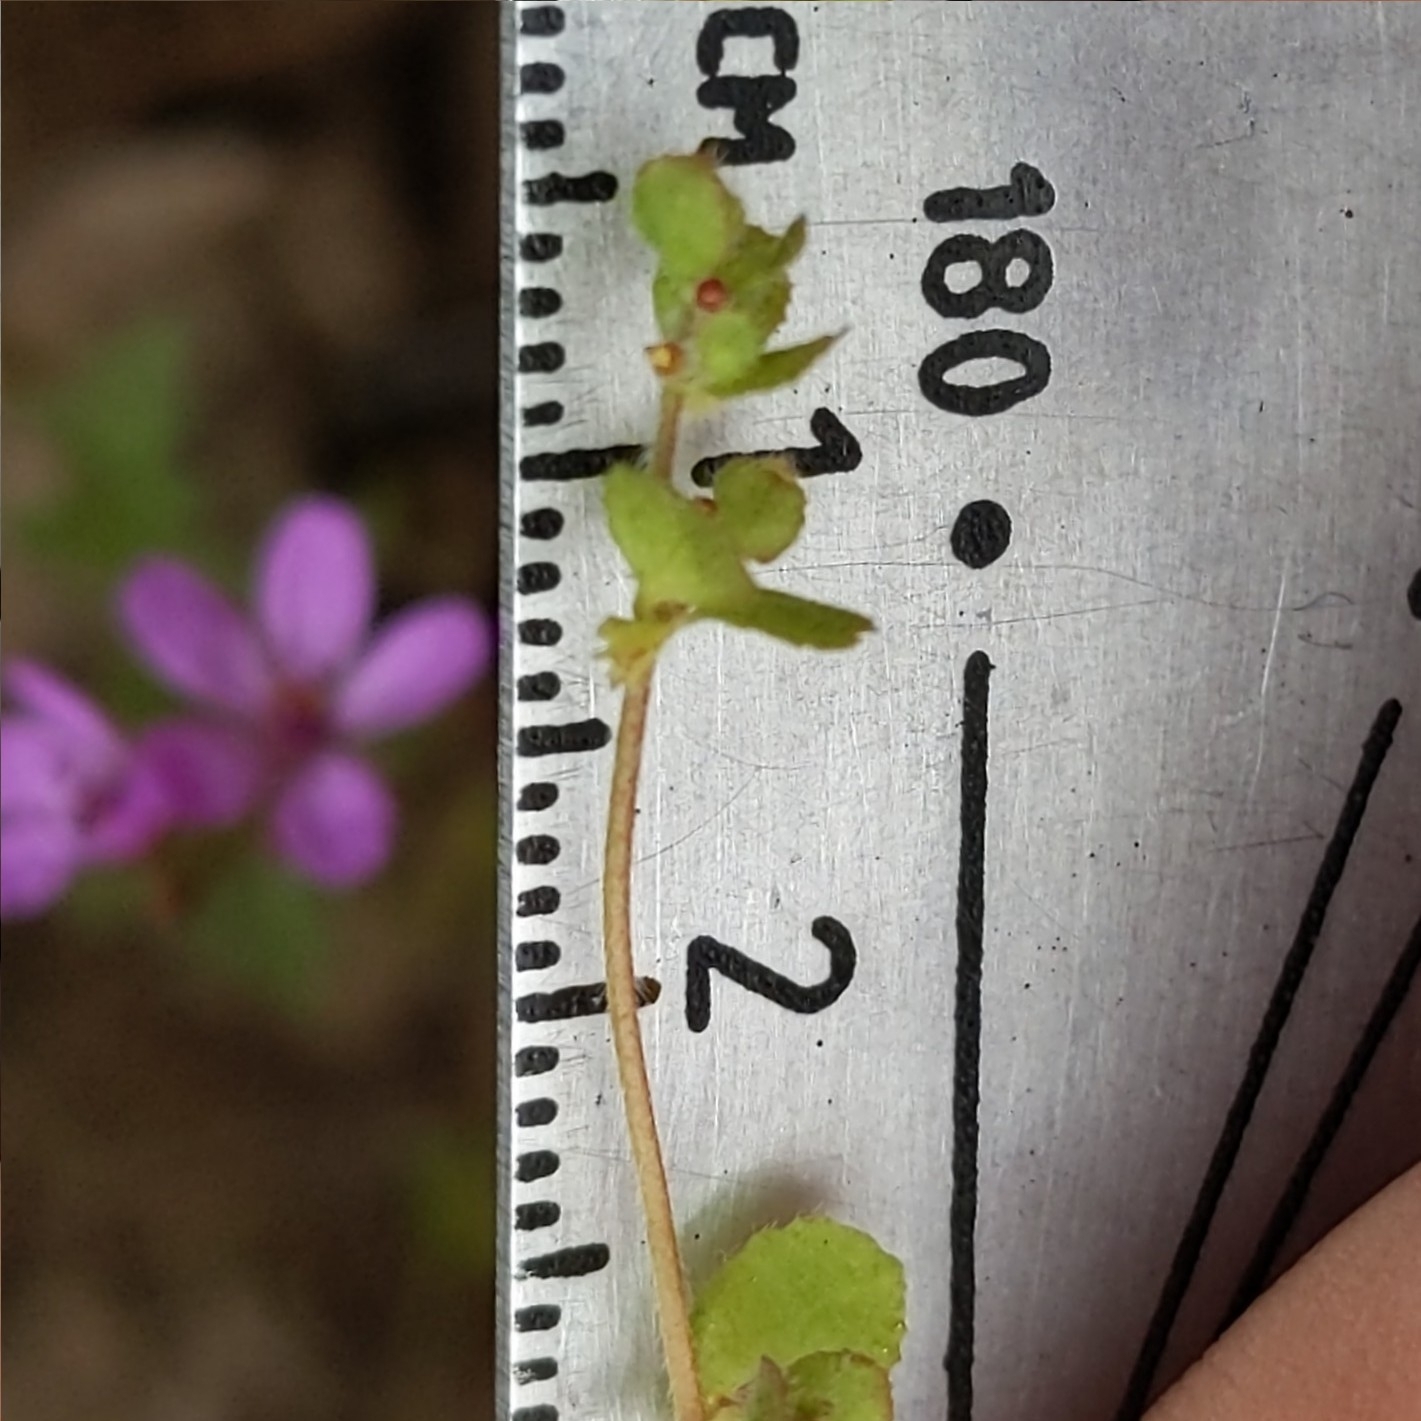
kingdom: Plantae
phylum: Tracheophyta
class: Magnoliopsida
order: Caryophyllales
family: Polygonaceae
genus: Pterostegia
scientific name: Pterostegia drymarioides
